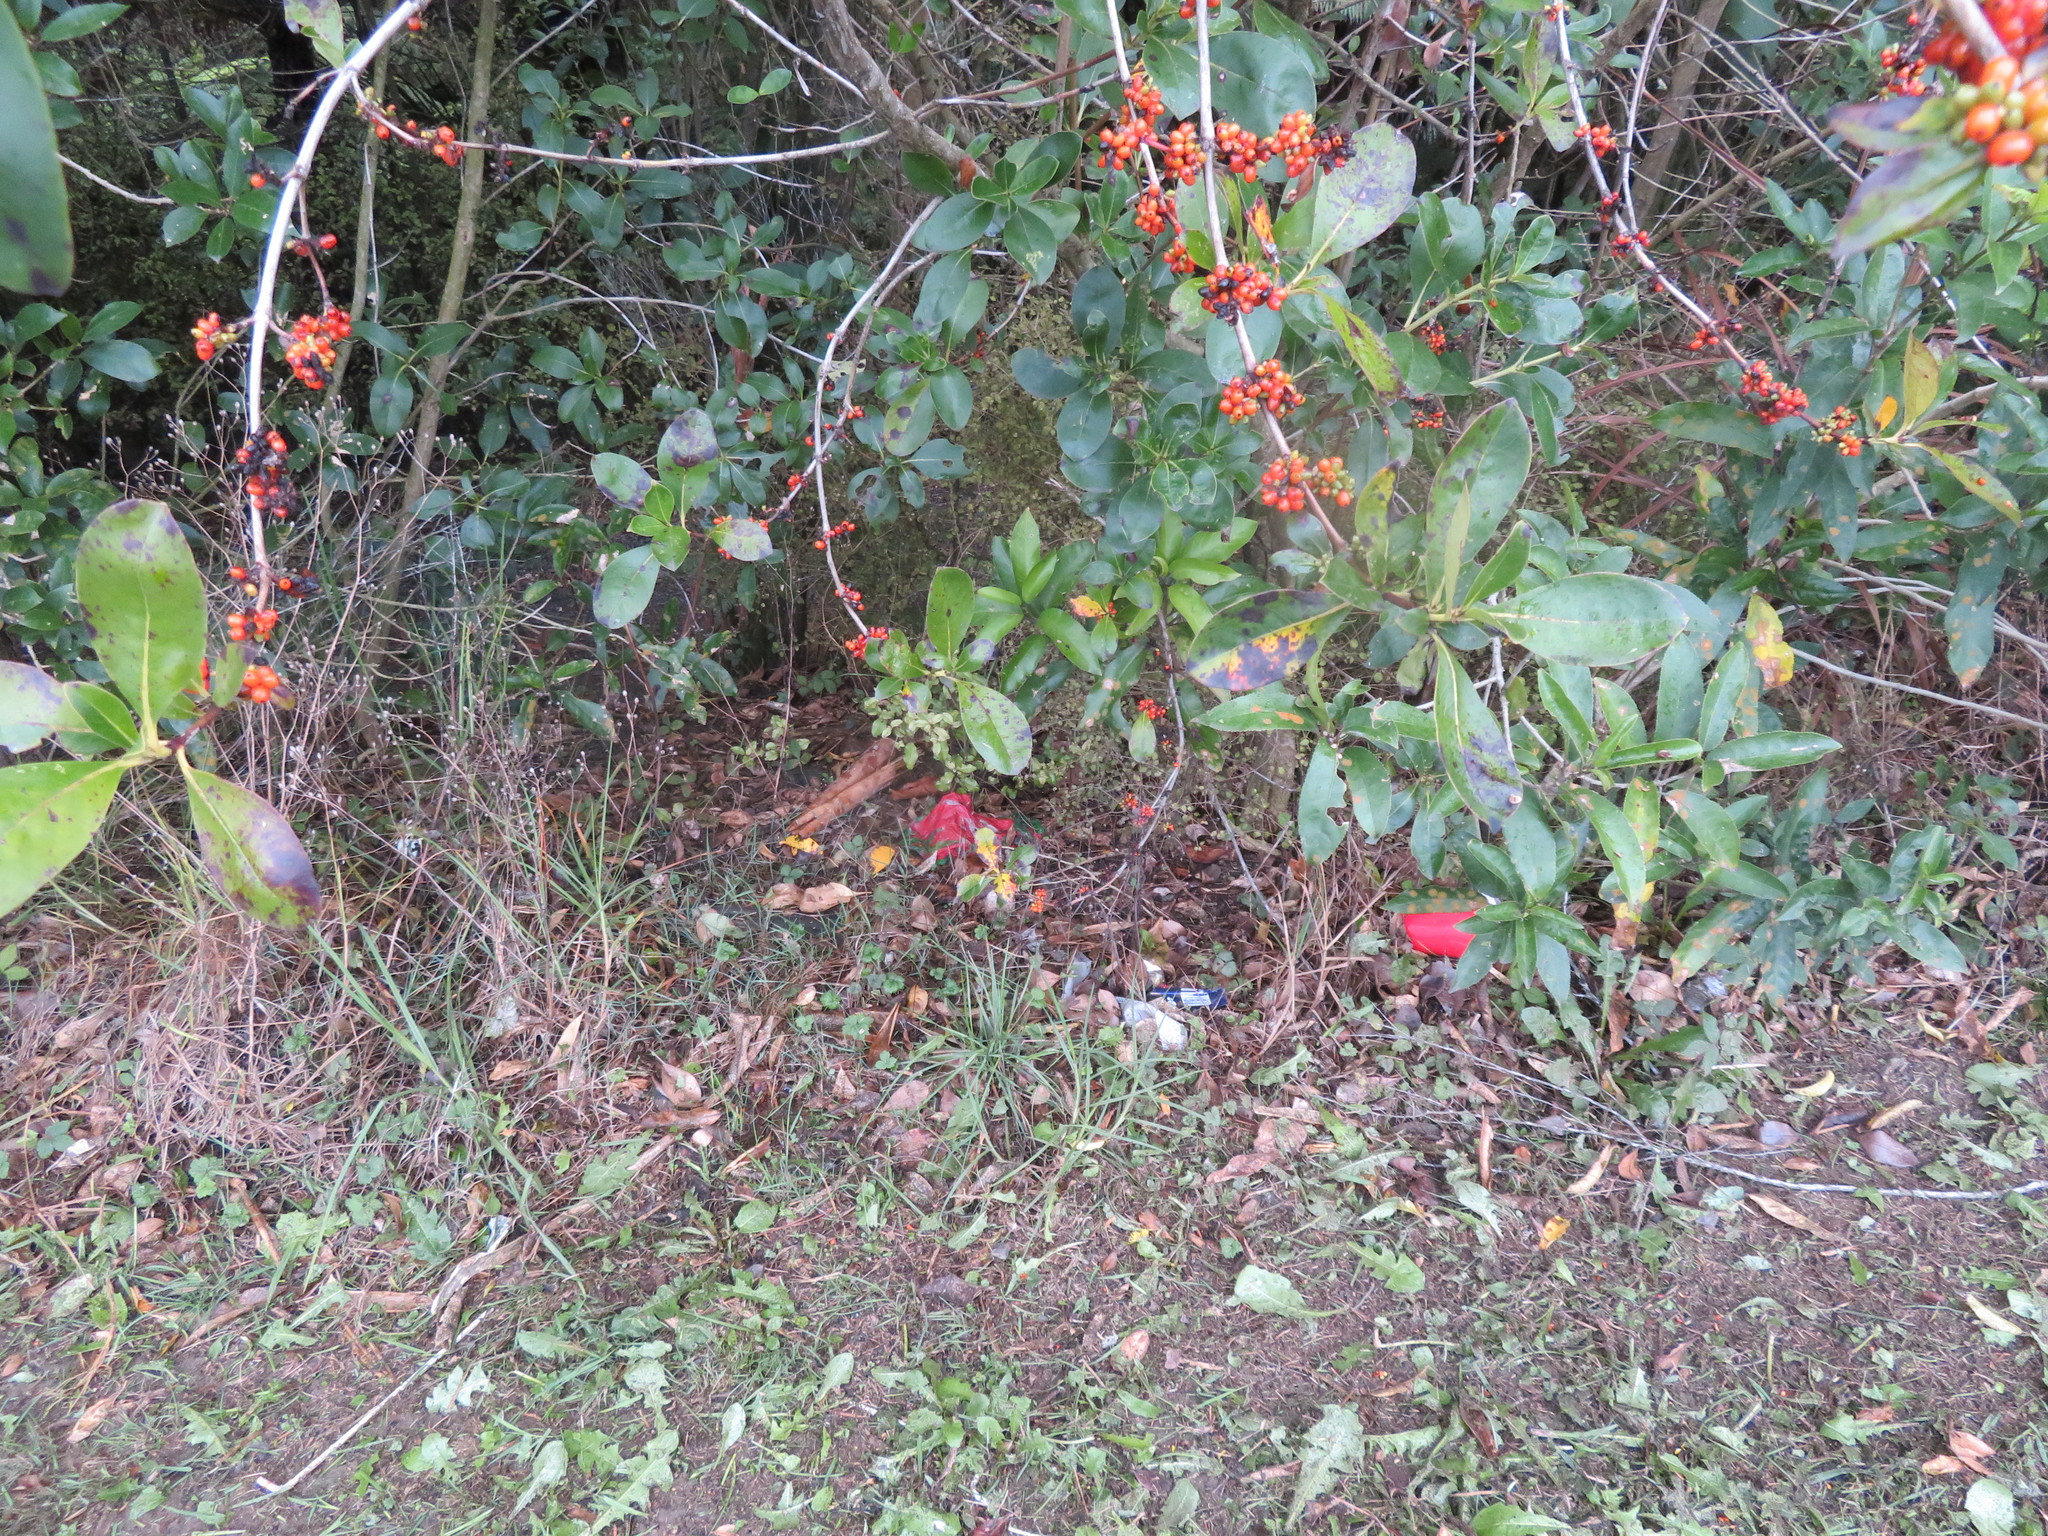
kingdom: Plantae
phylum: Tracheophyta
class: Magnoliopsida
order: Gentianales
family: Rubiaceae
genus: Coprosma
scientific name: Coprosma robusta
